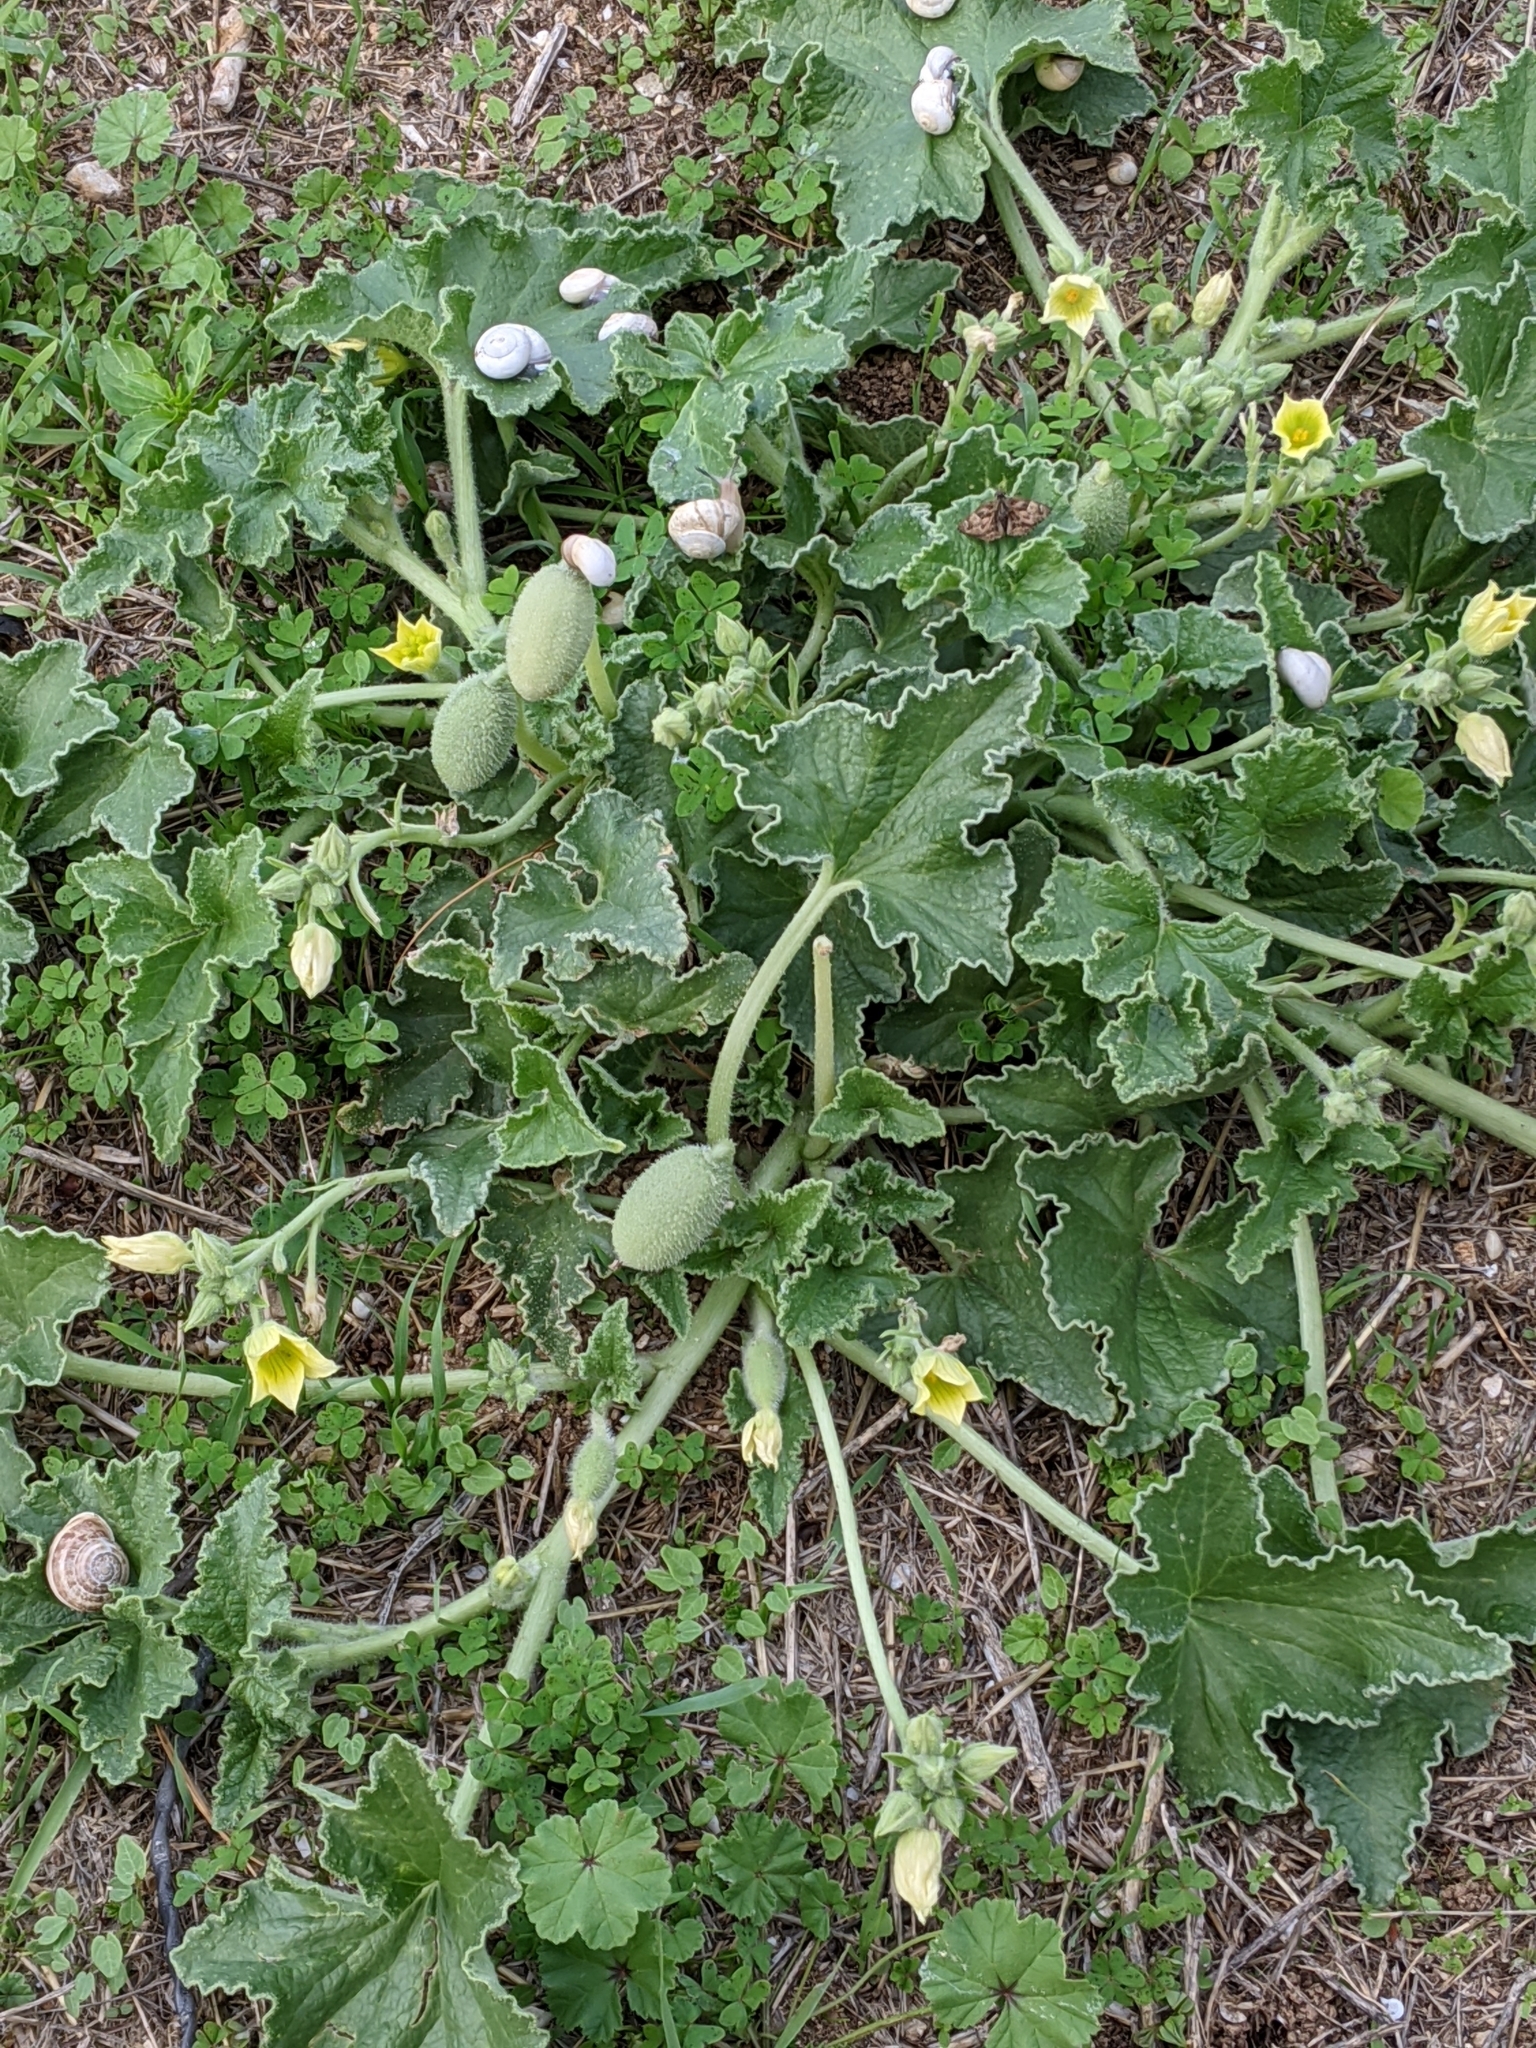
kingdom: Plantae
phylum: Tracheophyta
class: Magnoliopsida
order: Cucurbitales
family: Cucurbitaceae
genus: Ecballium
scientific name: Ecballium elaterium
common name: Squirting cucumber
